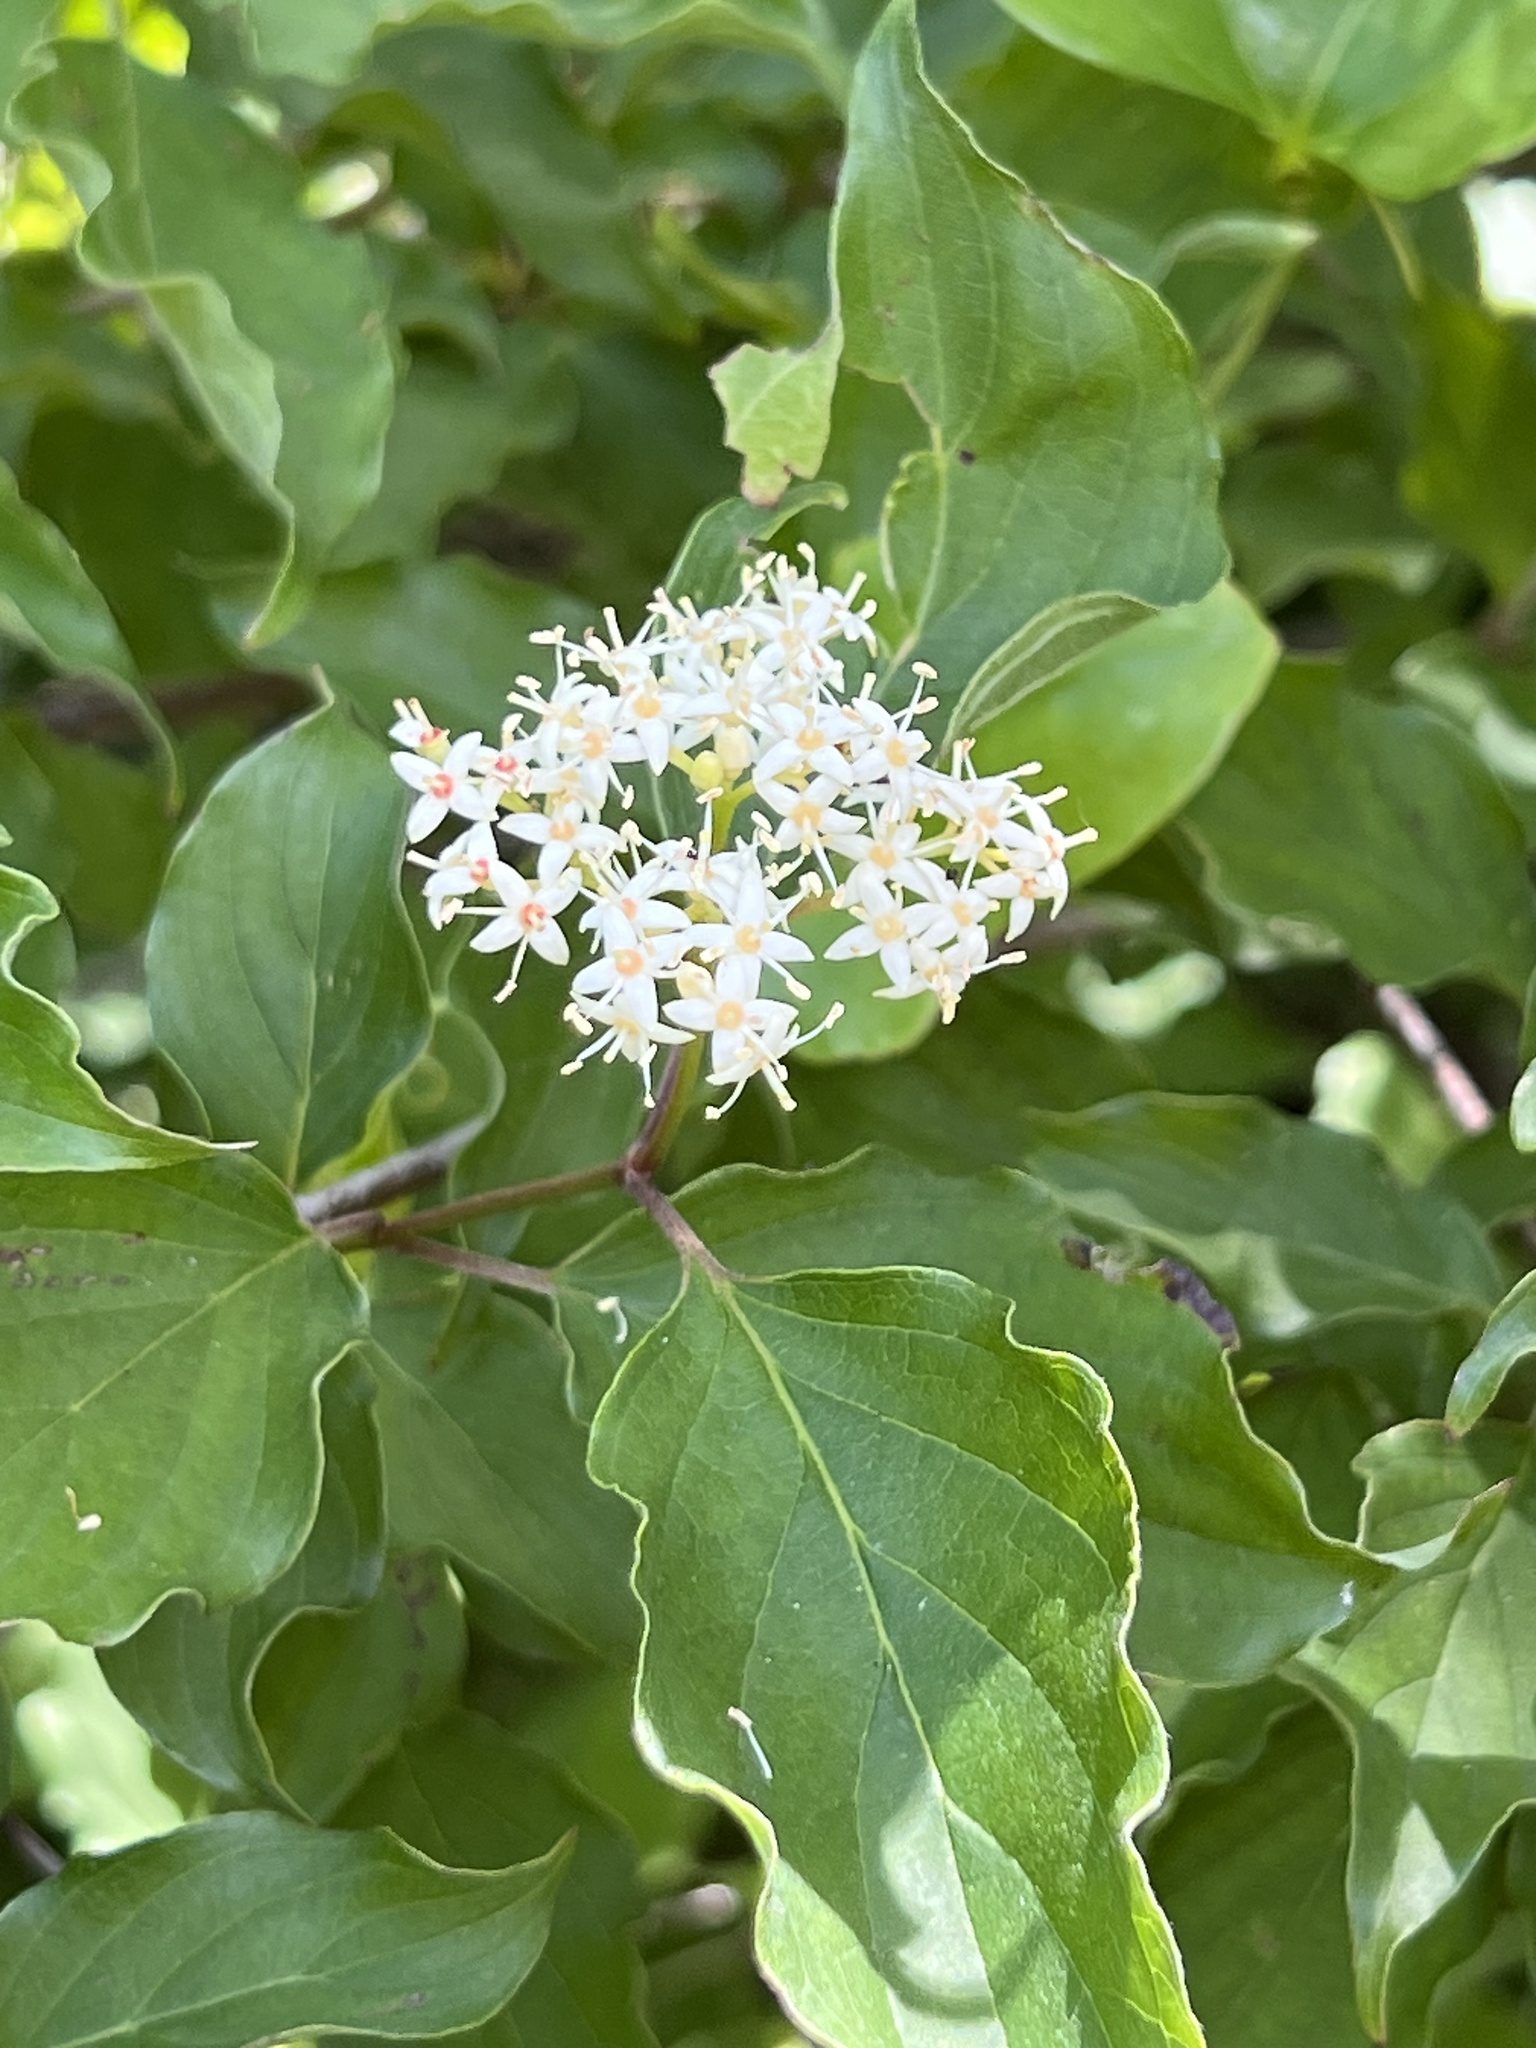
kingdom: Plantae
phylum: Tracheophyta
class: Magnoliopsida
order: Cornales
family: Cornaceae
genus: Cornus
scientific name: Cornus drummondii
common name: Rough-leaf dogwood
